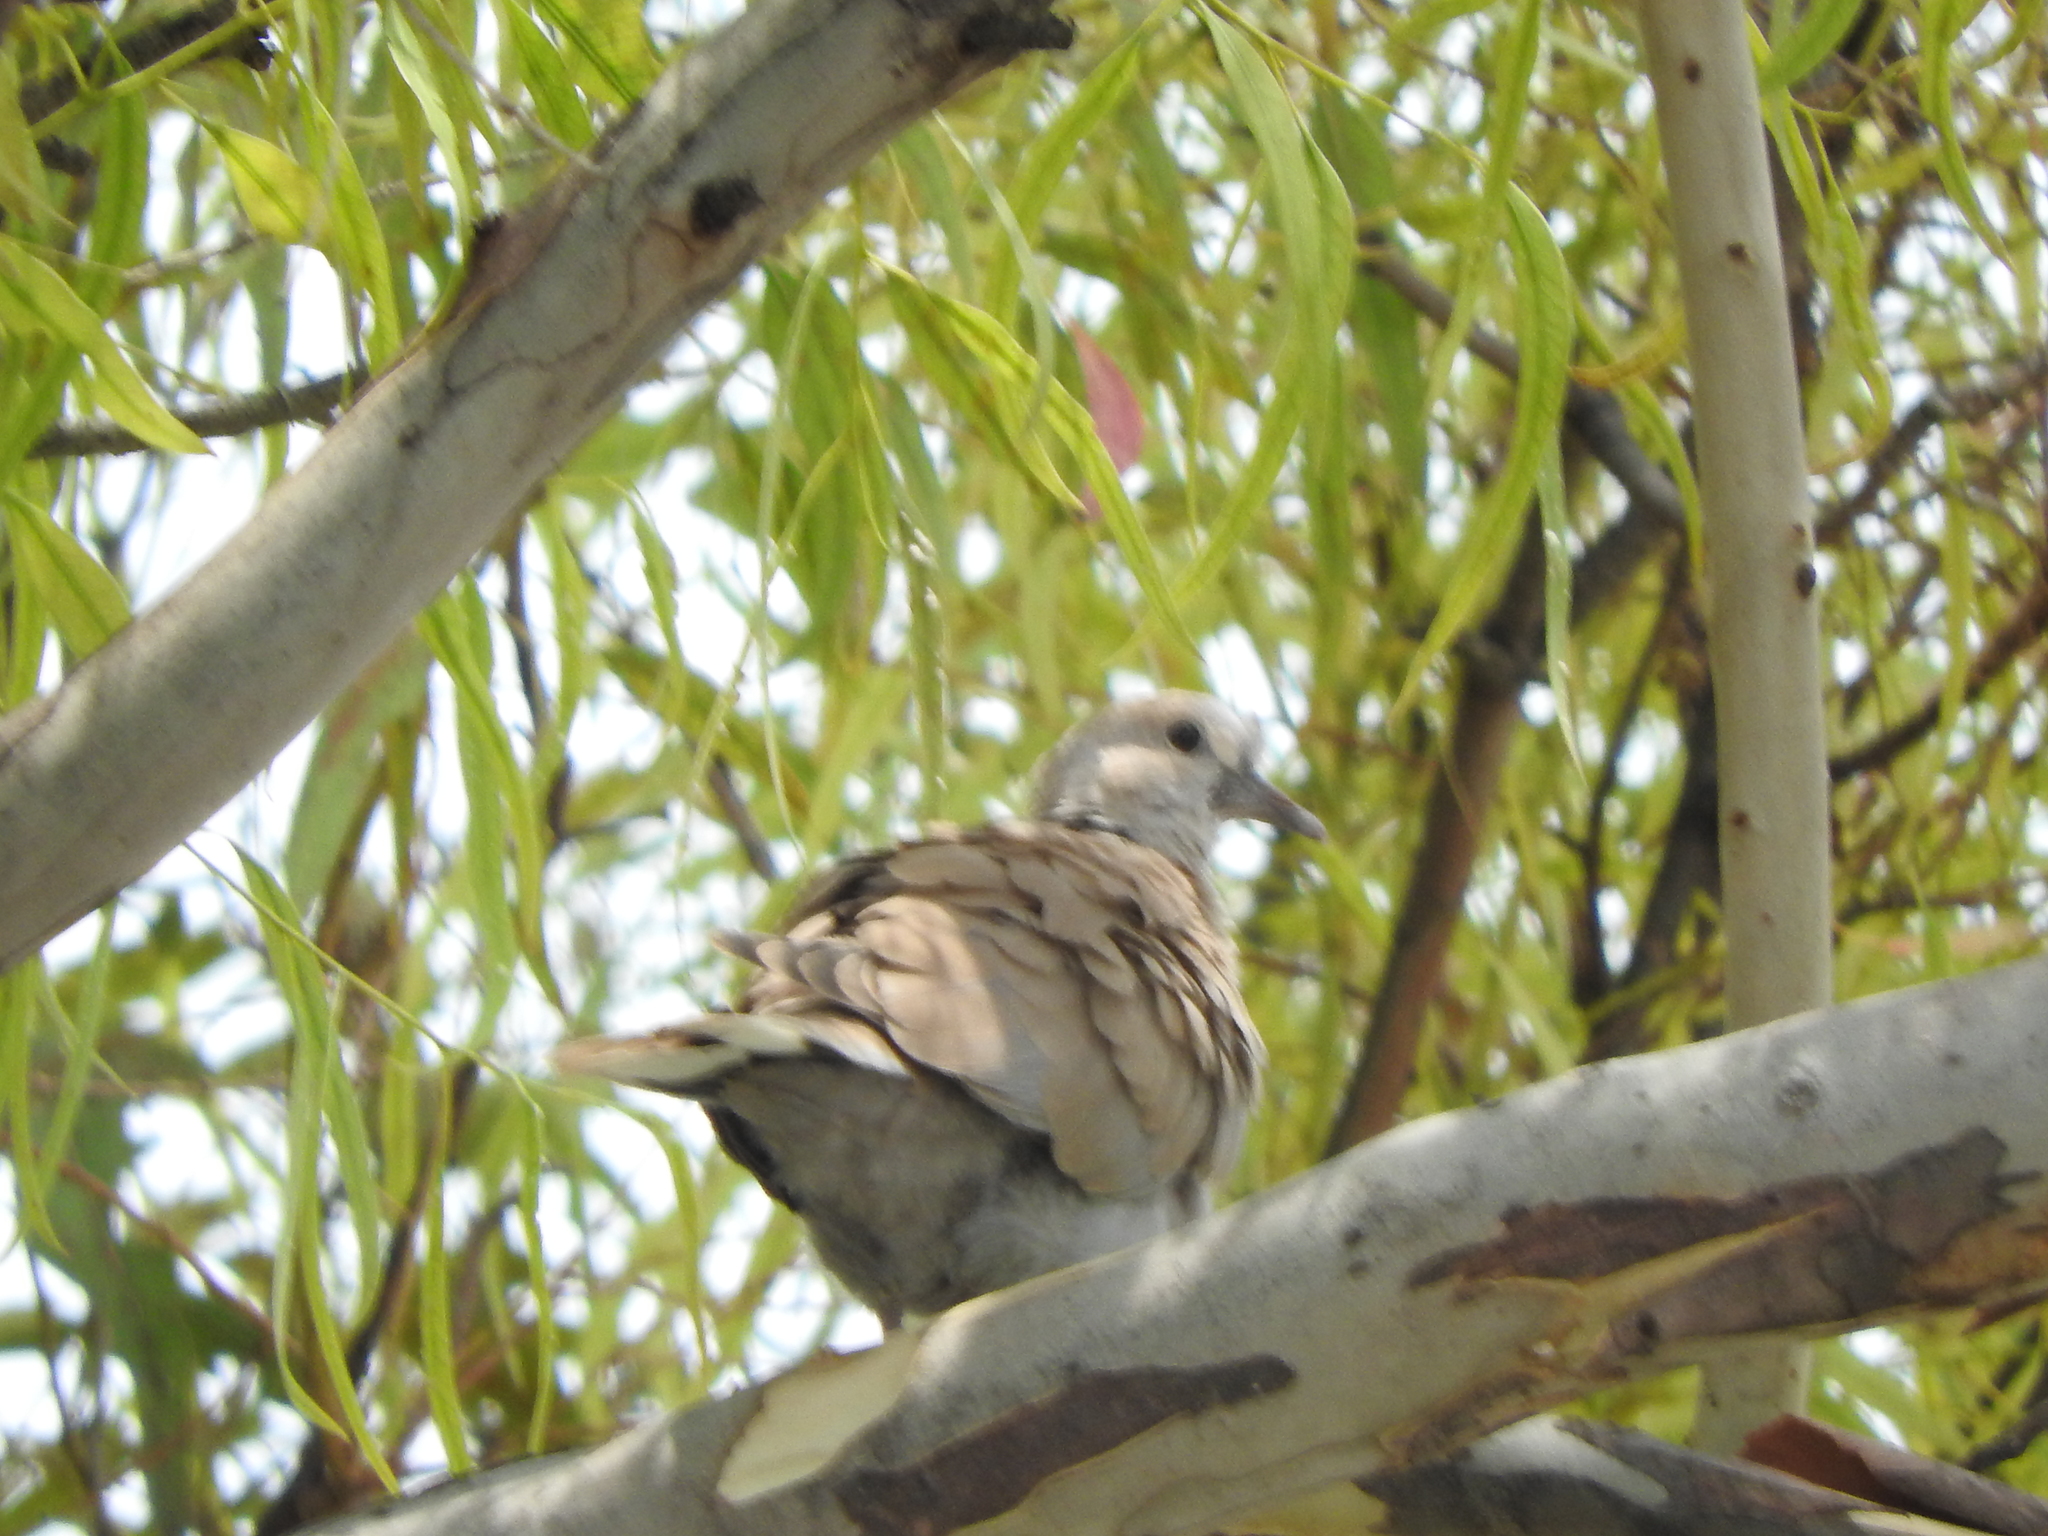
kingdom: Animalia
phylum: Chordata
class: Aves
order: Columbiformes
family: Columbidae
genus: Streptopelia
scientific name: Streptopelia decaocto
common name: Eurasian collared dove
